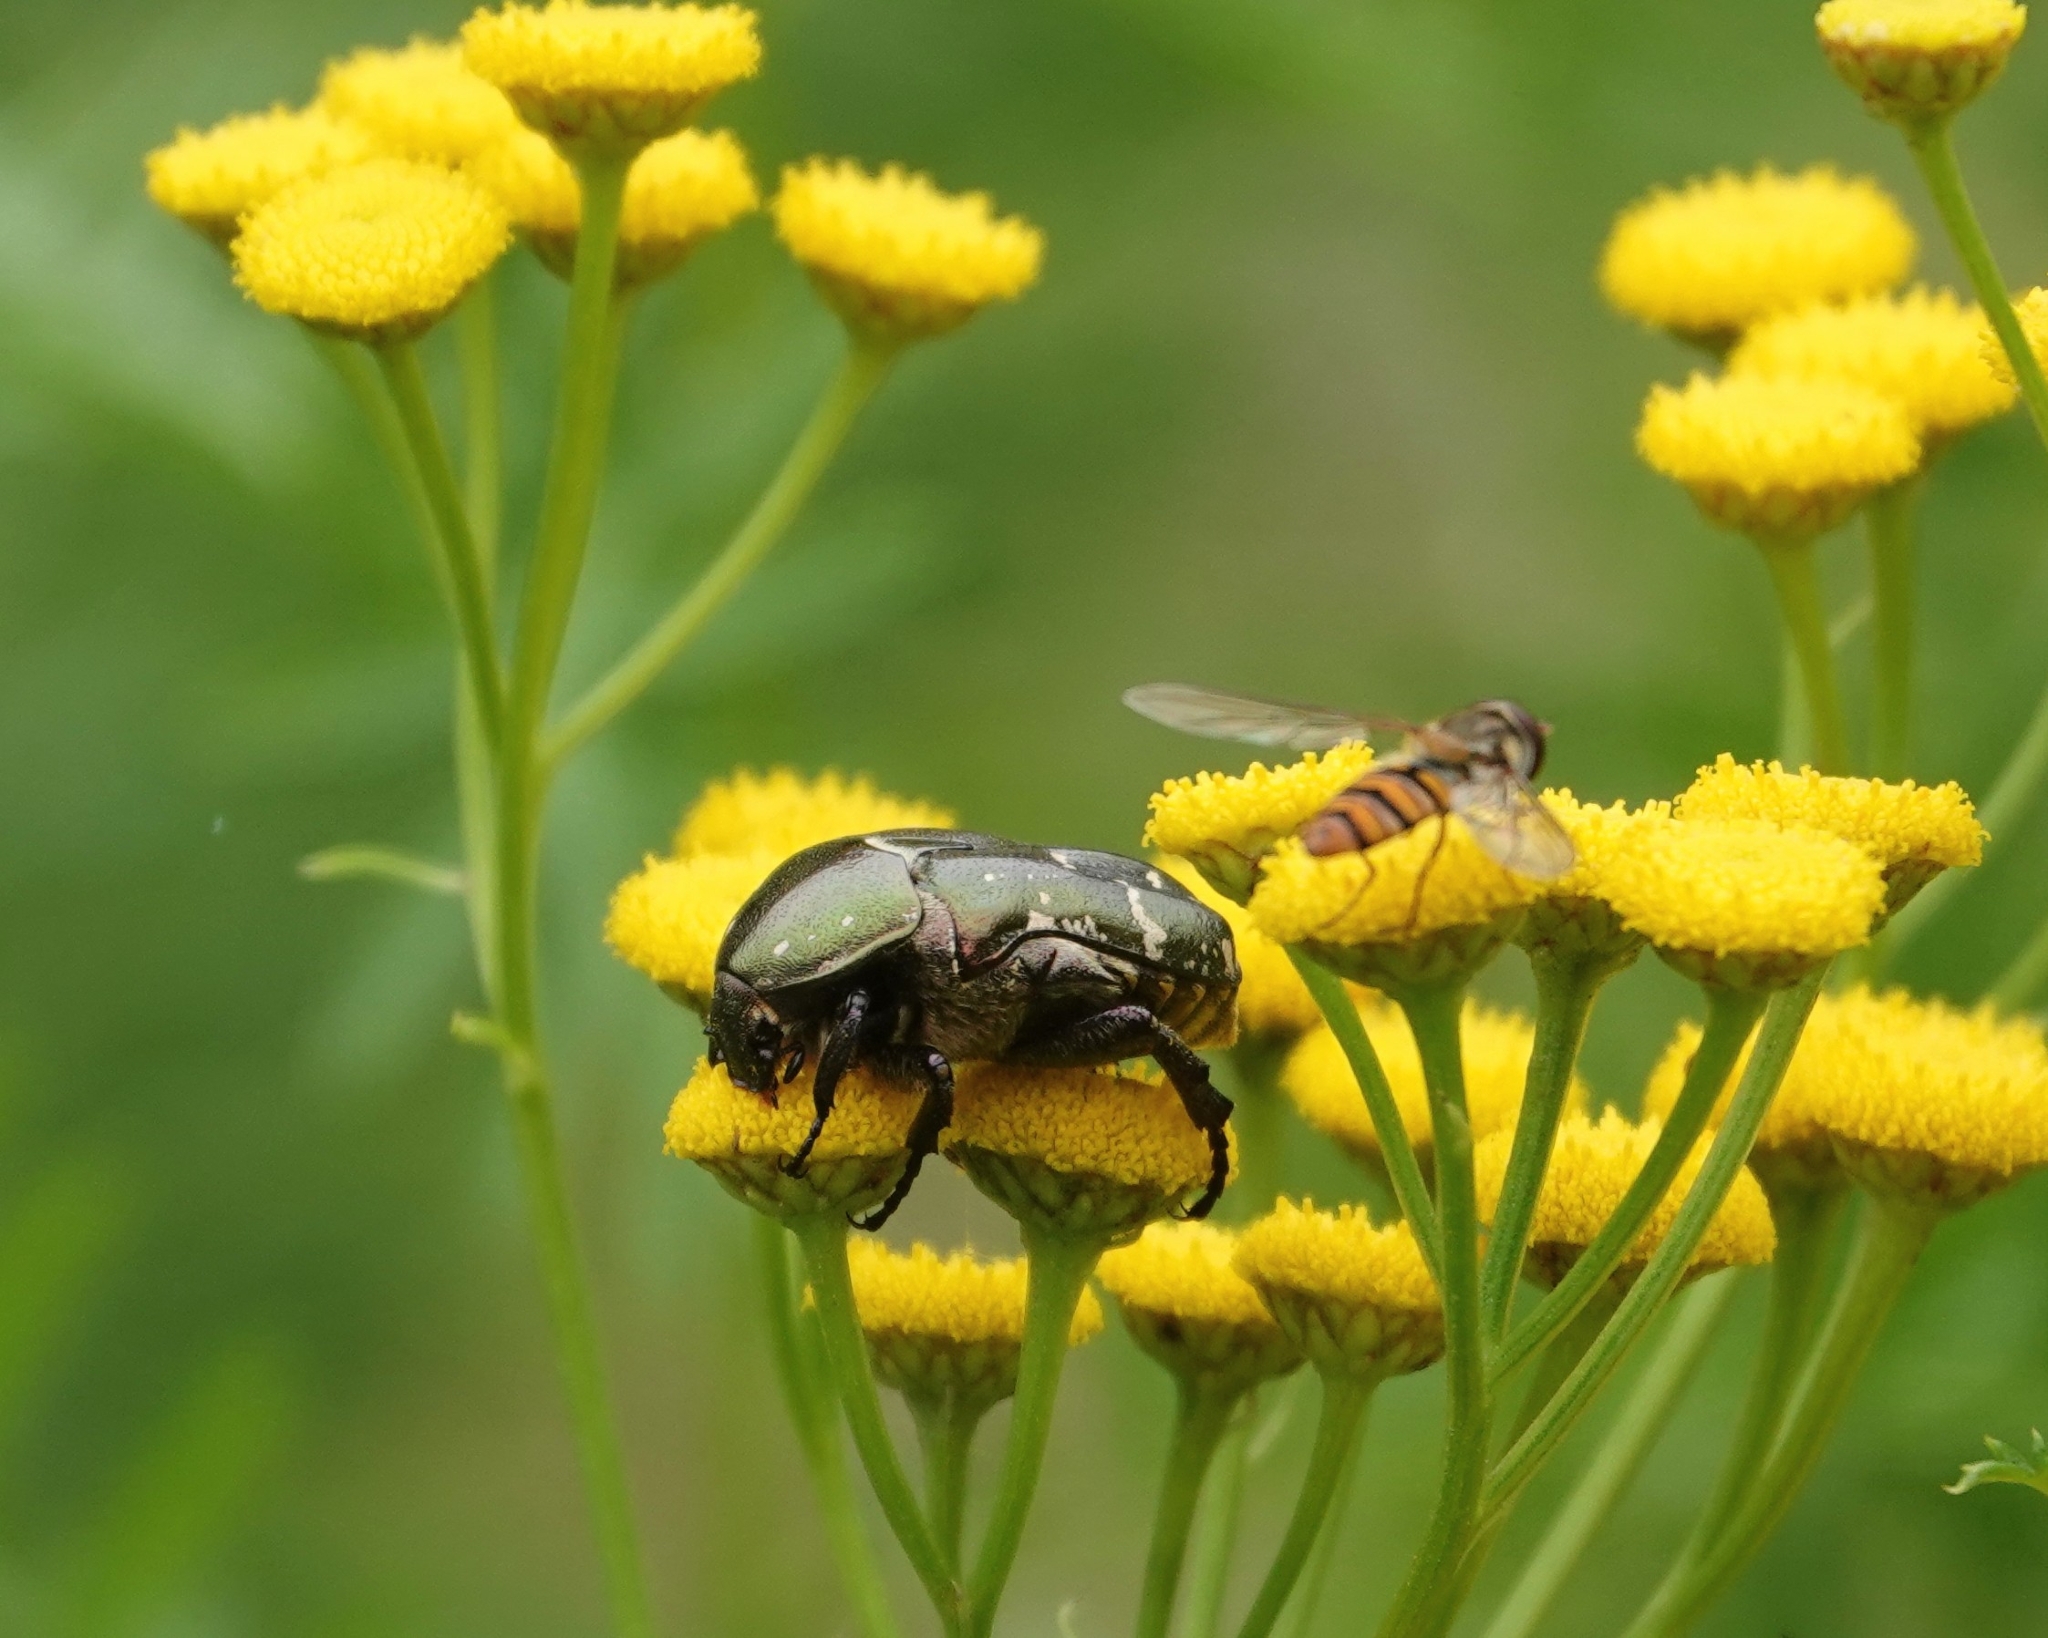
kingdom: Animalia
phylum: Arthropoda
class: Insecta
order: Coleoptera
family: Scarabaeidae
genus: Protaetia
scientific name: Protaetia cuprea
